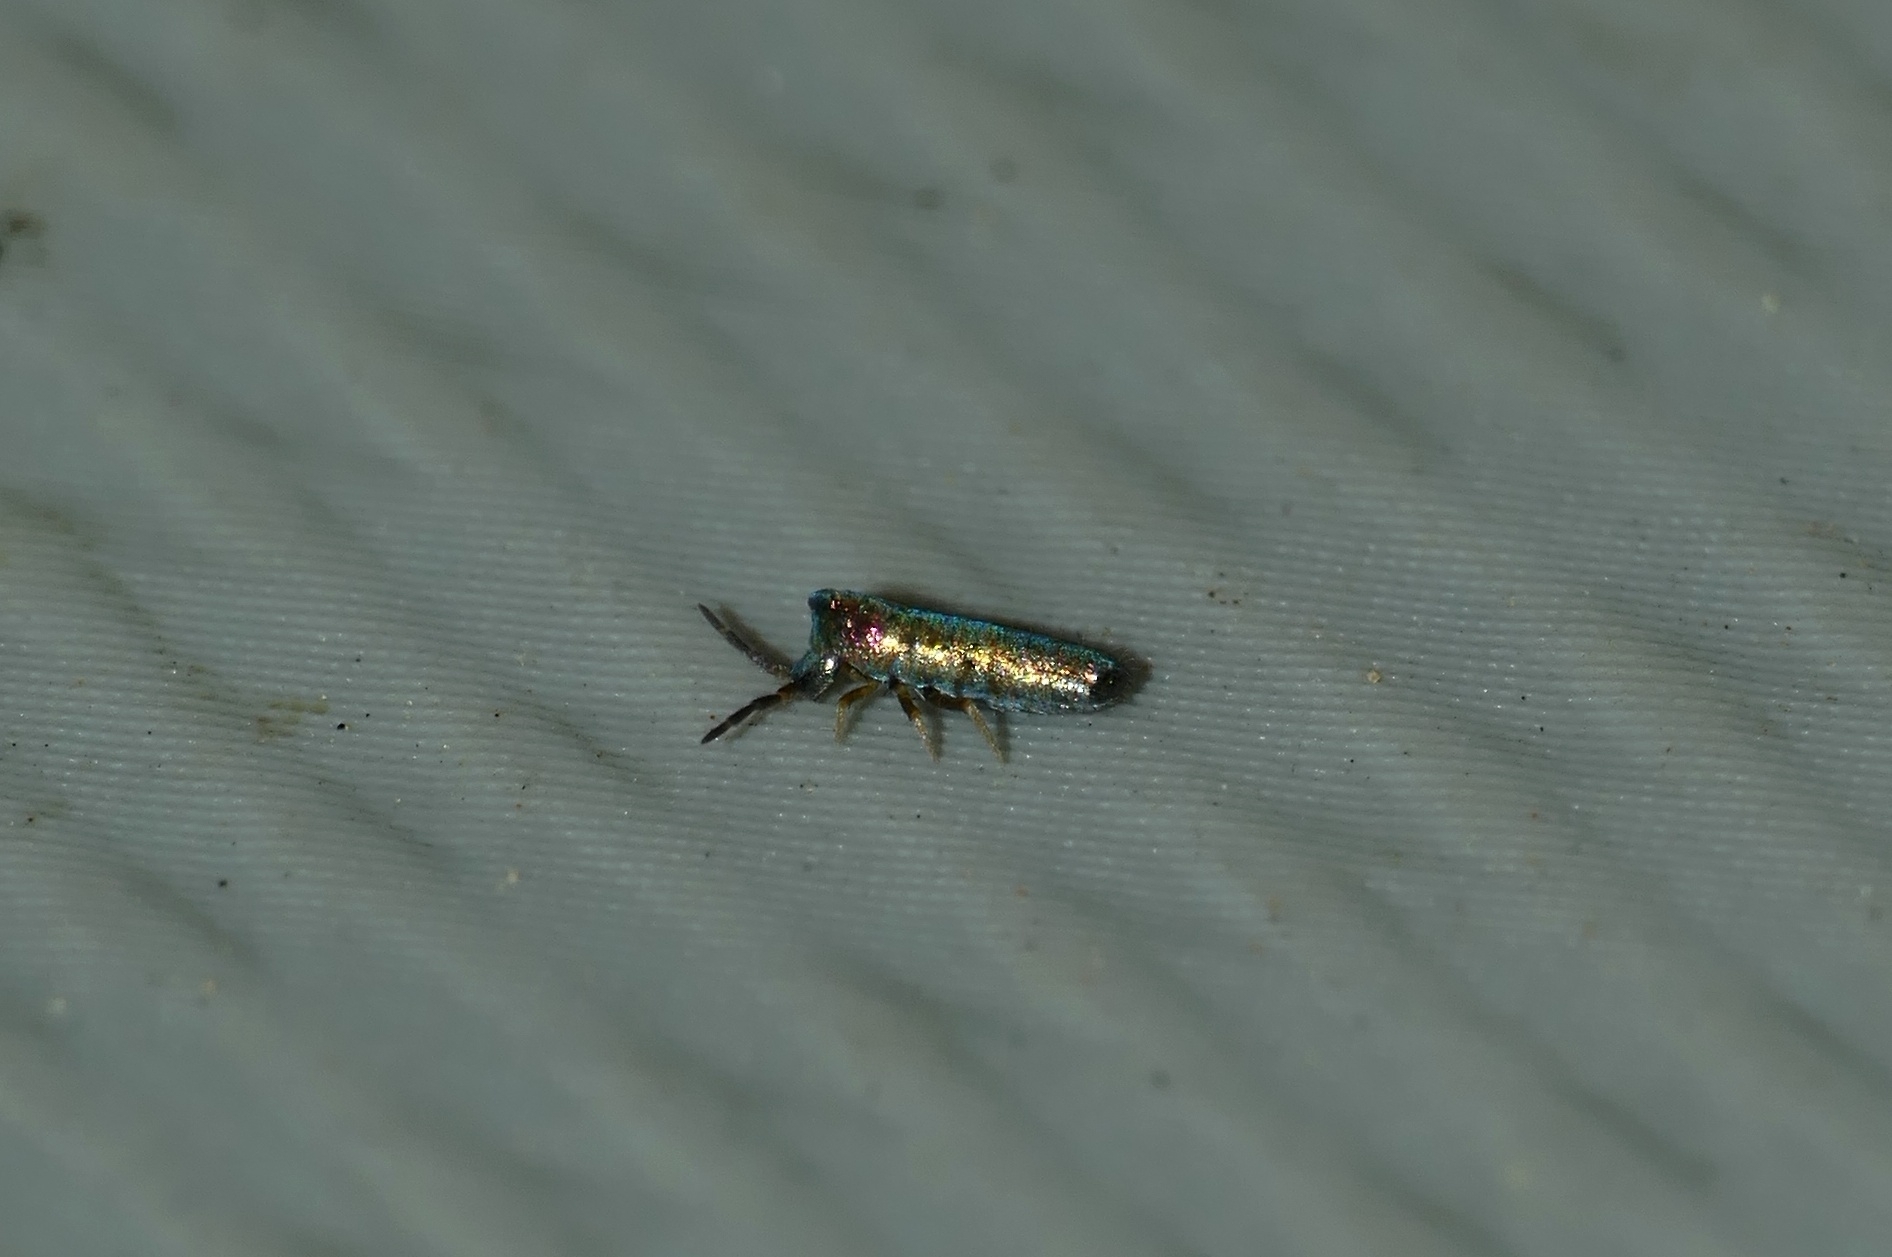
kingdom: Animalia
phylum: Arthropoda
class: Collembola
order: Entomobryomorpha
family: Entomobryidae
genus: Lepidocyrtus
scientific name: Lepidocyrtus paradoxus
